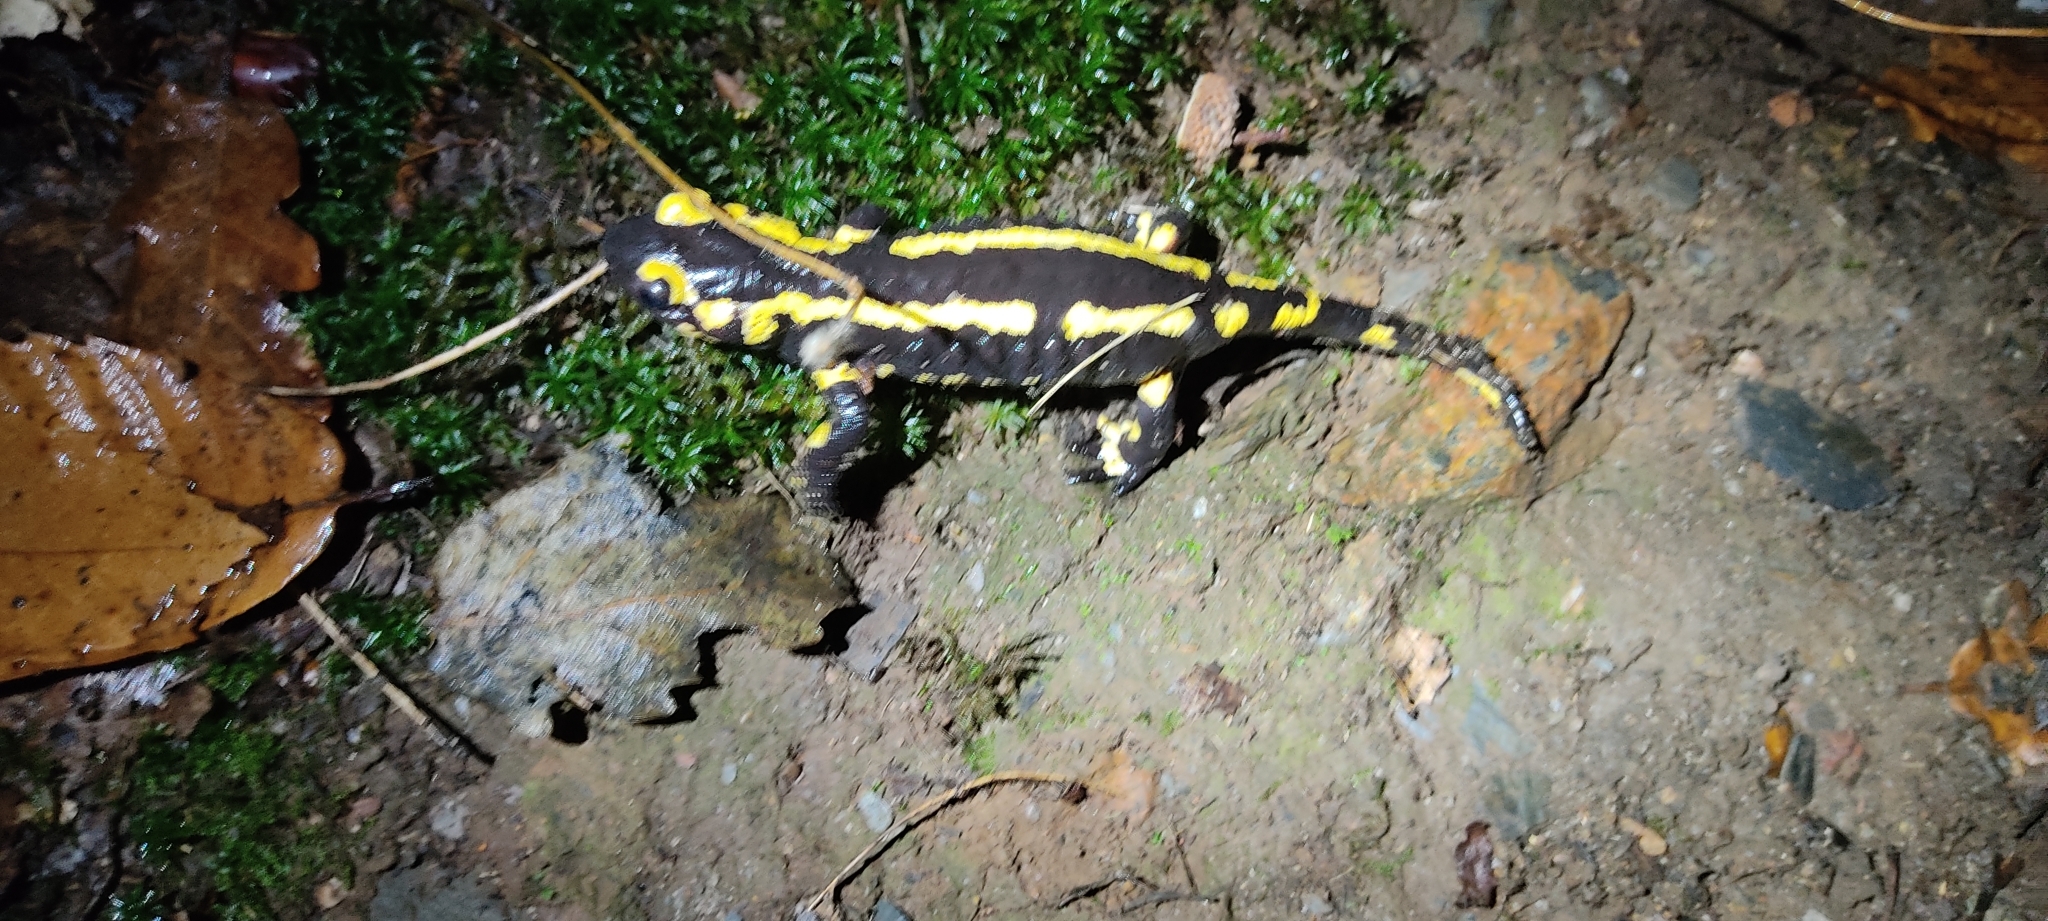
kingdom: Animalia
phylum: Chordata
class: Amphibia
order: Caudata
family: Salamandridae
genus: Salamandra
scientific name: Salamandra salamandra
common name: Fire salamander
